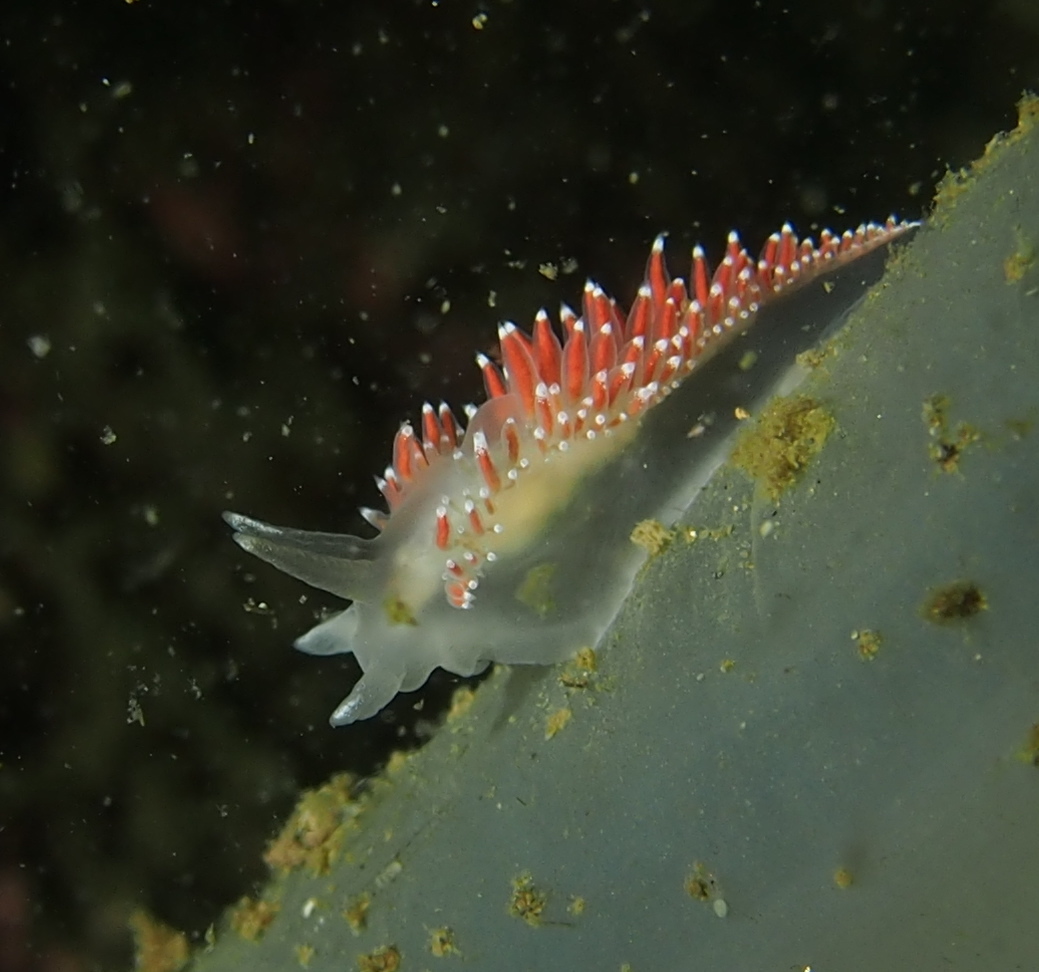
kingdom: Animalia
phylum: Mollusca
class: Gastropoda
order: Nudibranchia
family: Coryphellidae
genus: Coryphella
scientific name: Coryphella verrucosa
